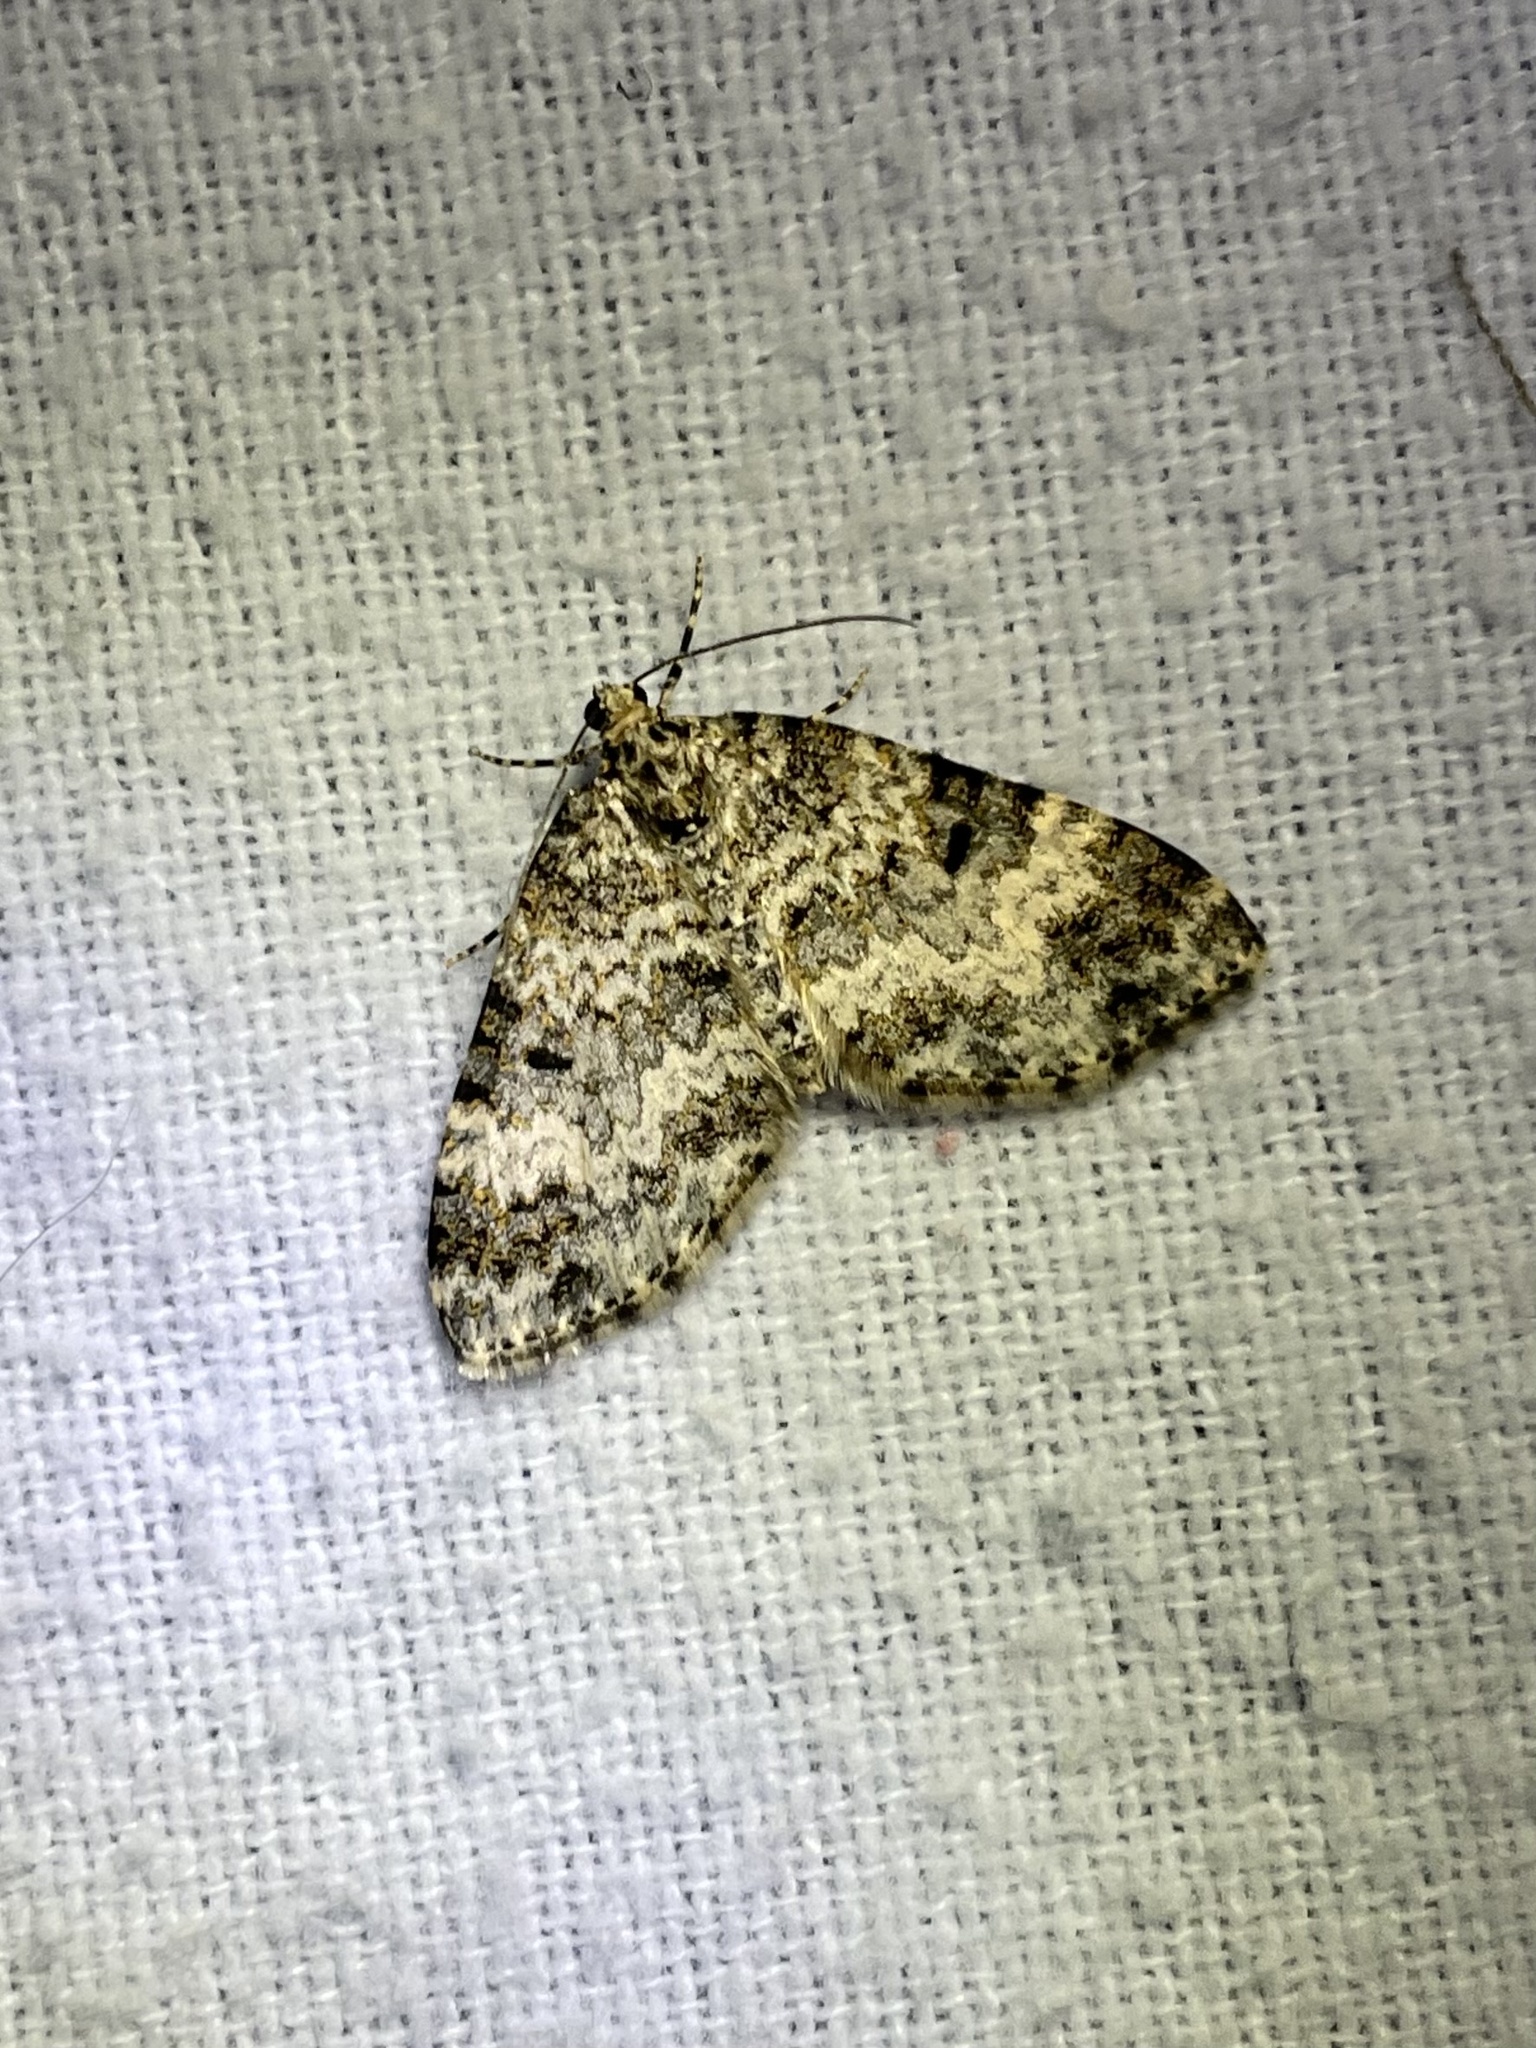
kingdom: Animalia
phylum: Arthropoda
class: Insecta
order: Lepidoptera
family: Geometridae
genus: Spargania
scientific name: Spargania magnoliata
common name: Double-banded carpet
